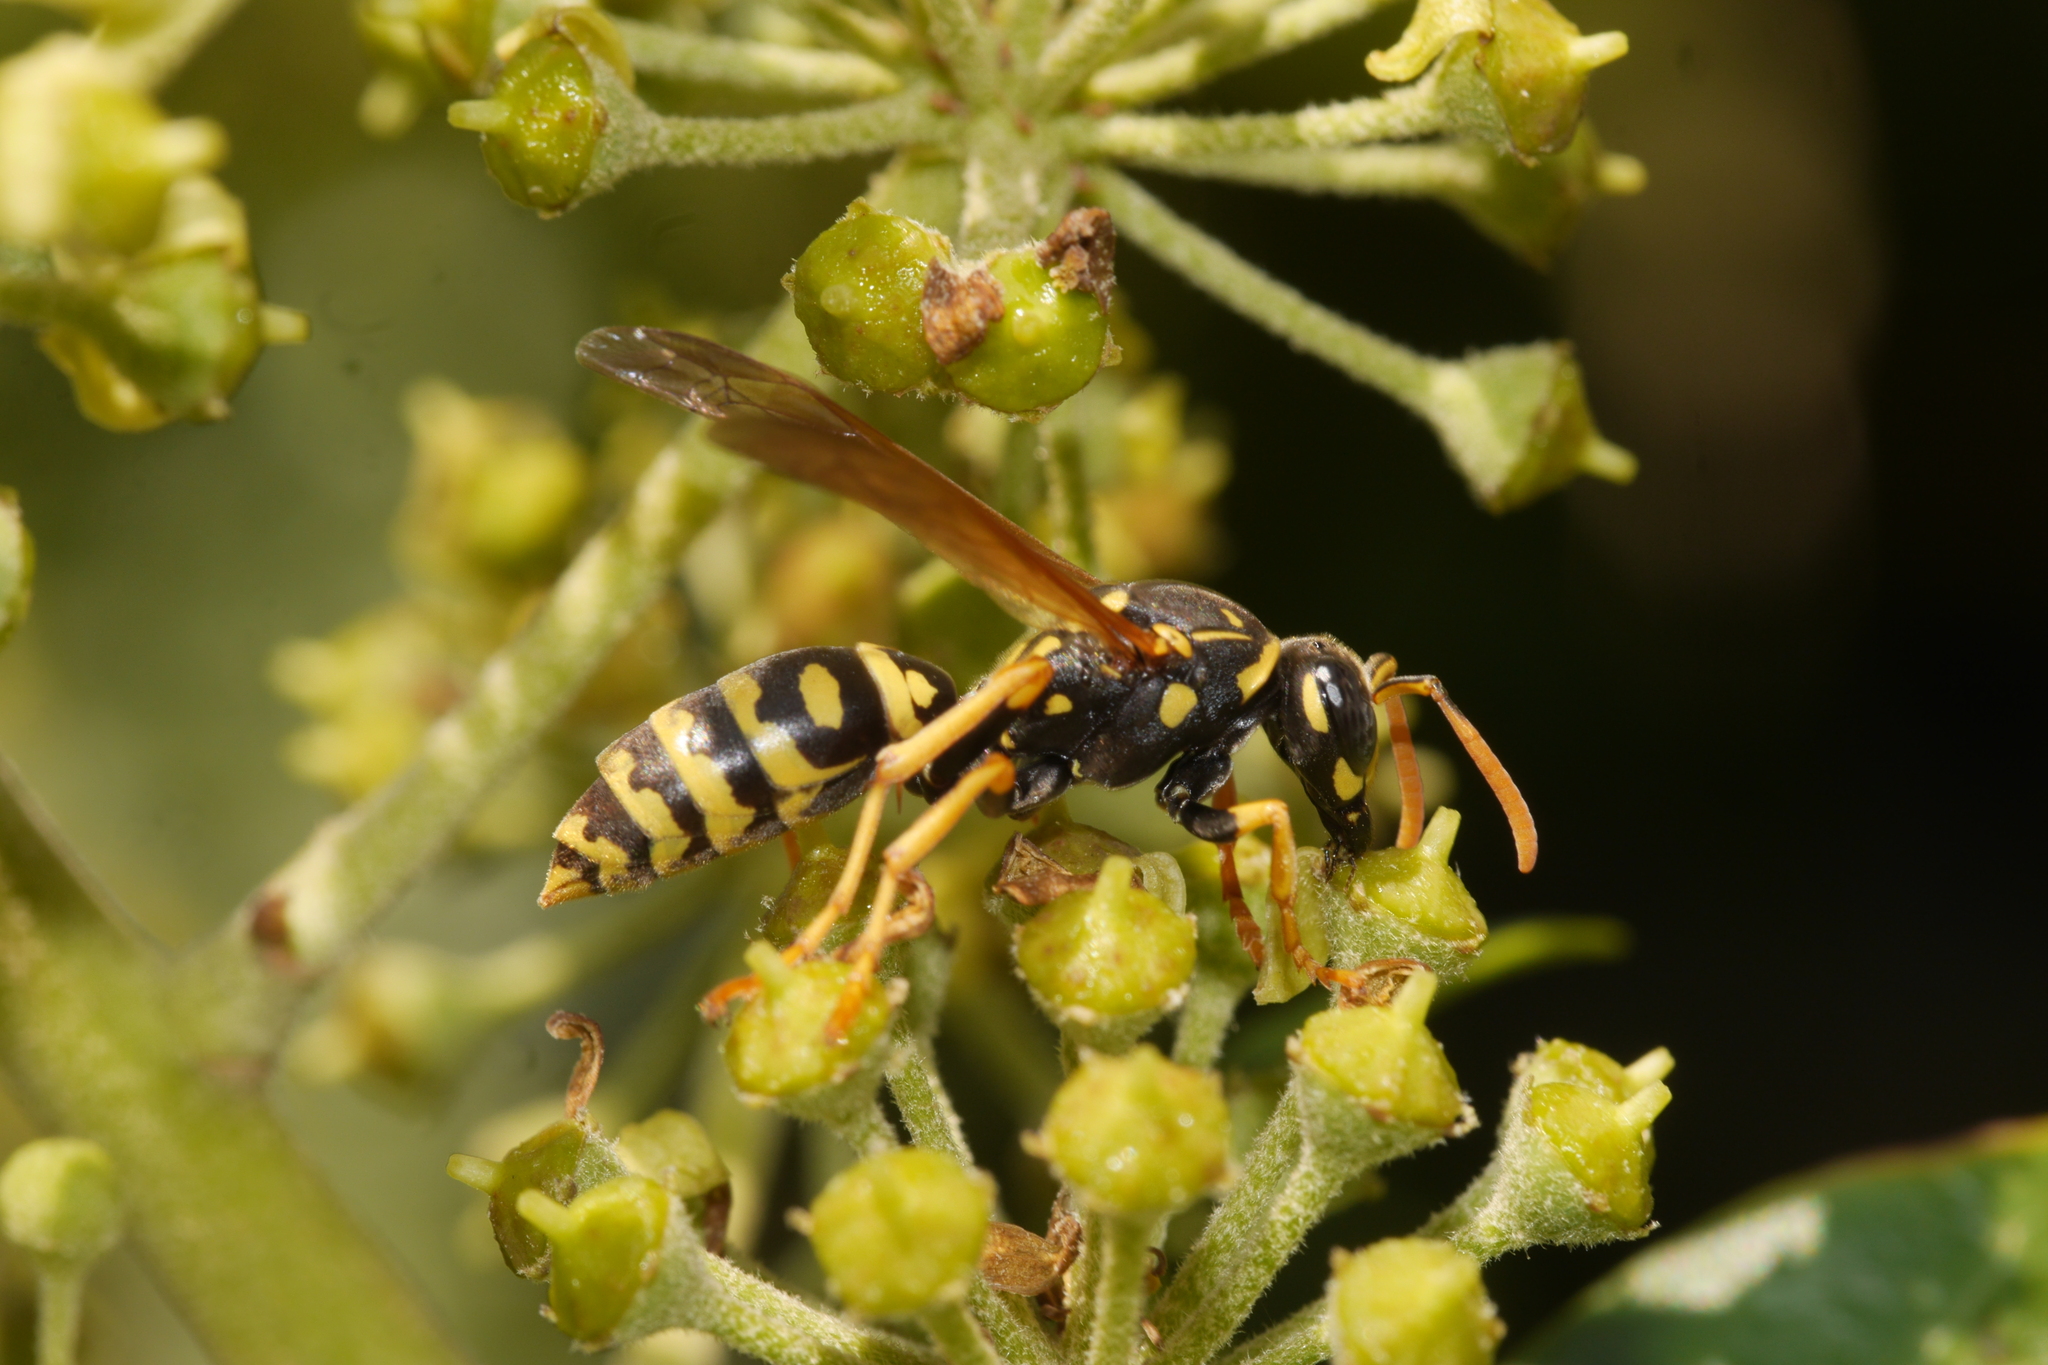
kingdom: Animalia
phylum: Arthropoda
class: Insecta
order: Hymenoptera
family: Eumenidae
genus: Polistes
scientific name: Polistes dominula
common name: Paper wasp
